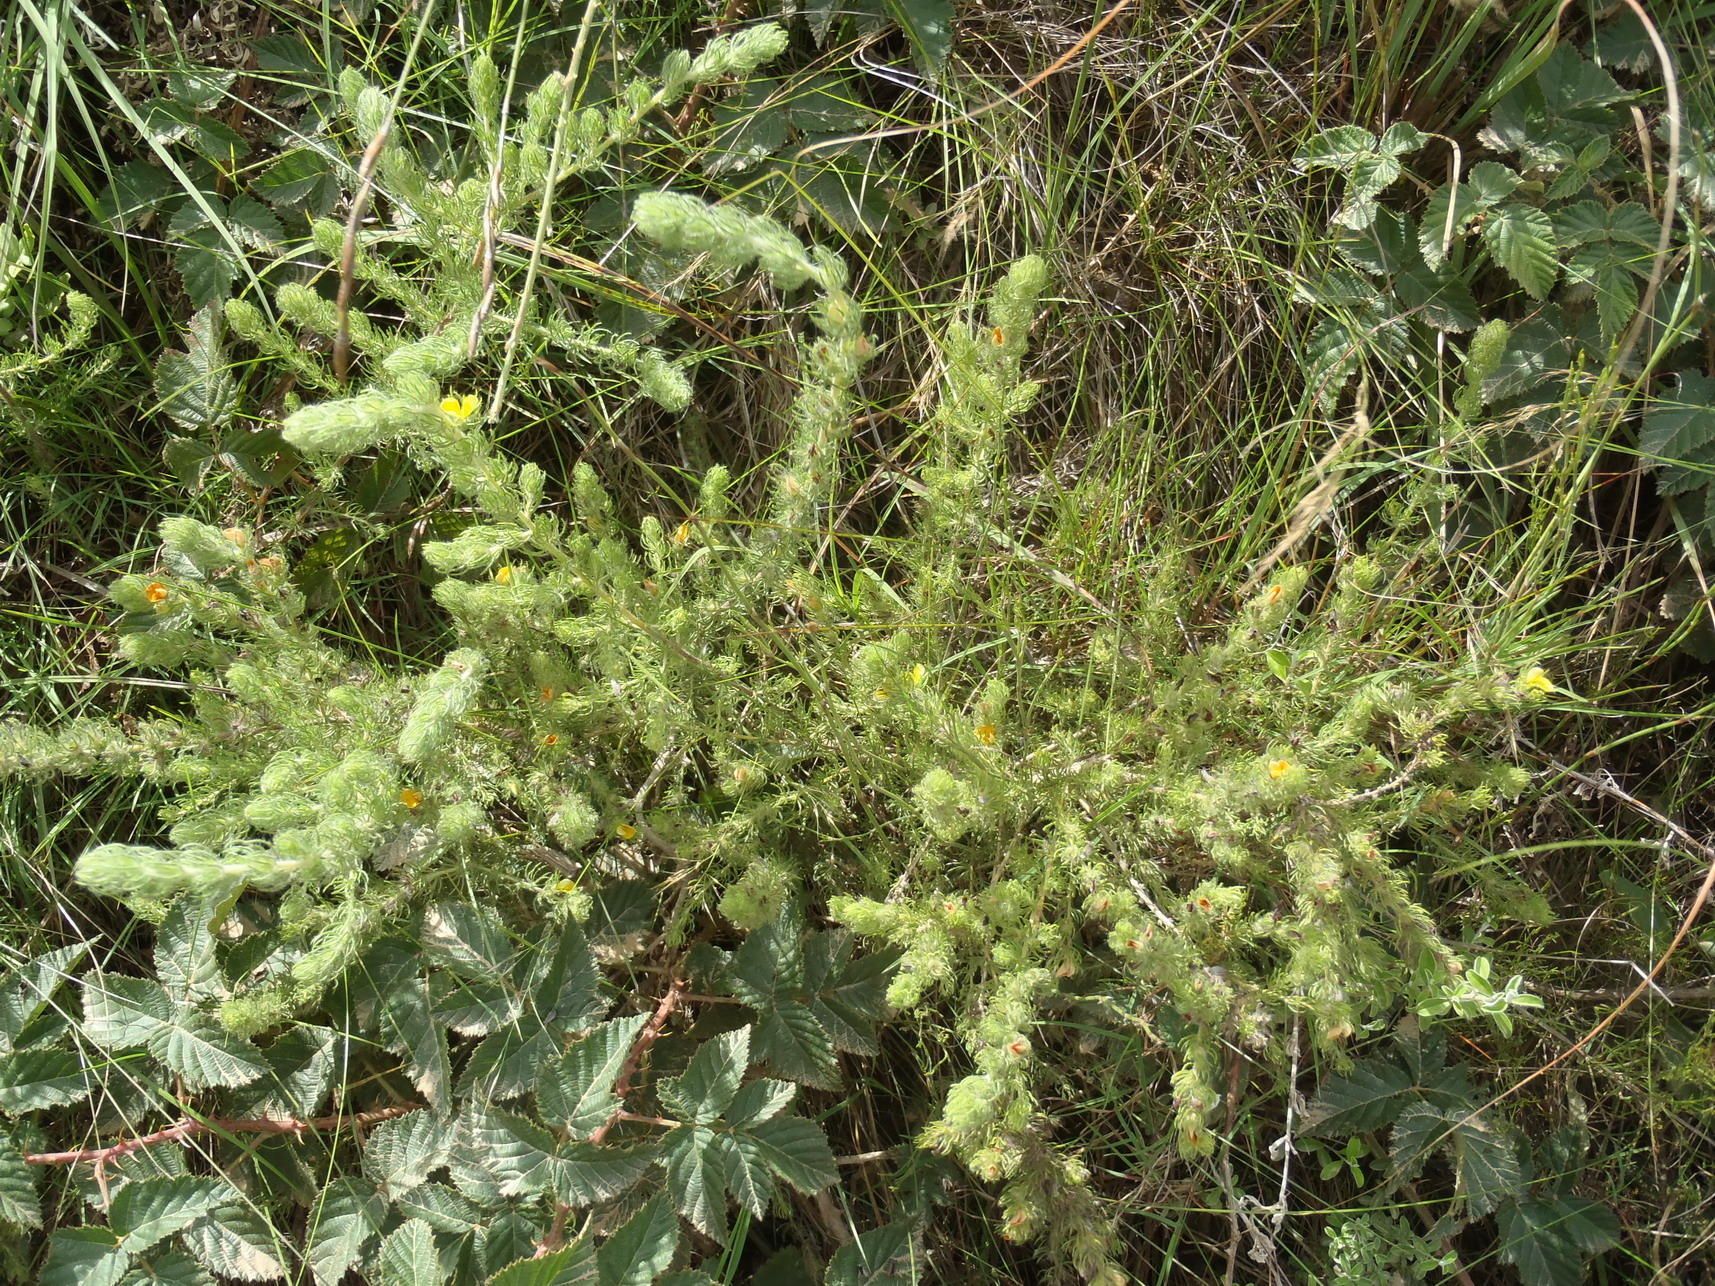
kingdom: Plantae
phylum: Tracheophyta
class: Magnoliopsida
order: Fabales
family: Fabaceae
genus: Aspalathus
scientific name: Aspalathus asparagoides
